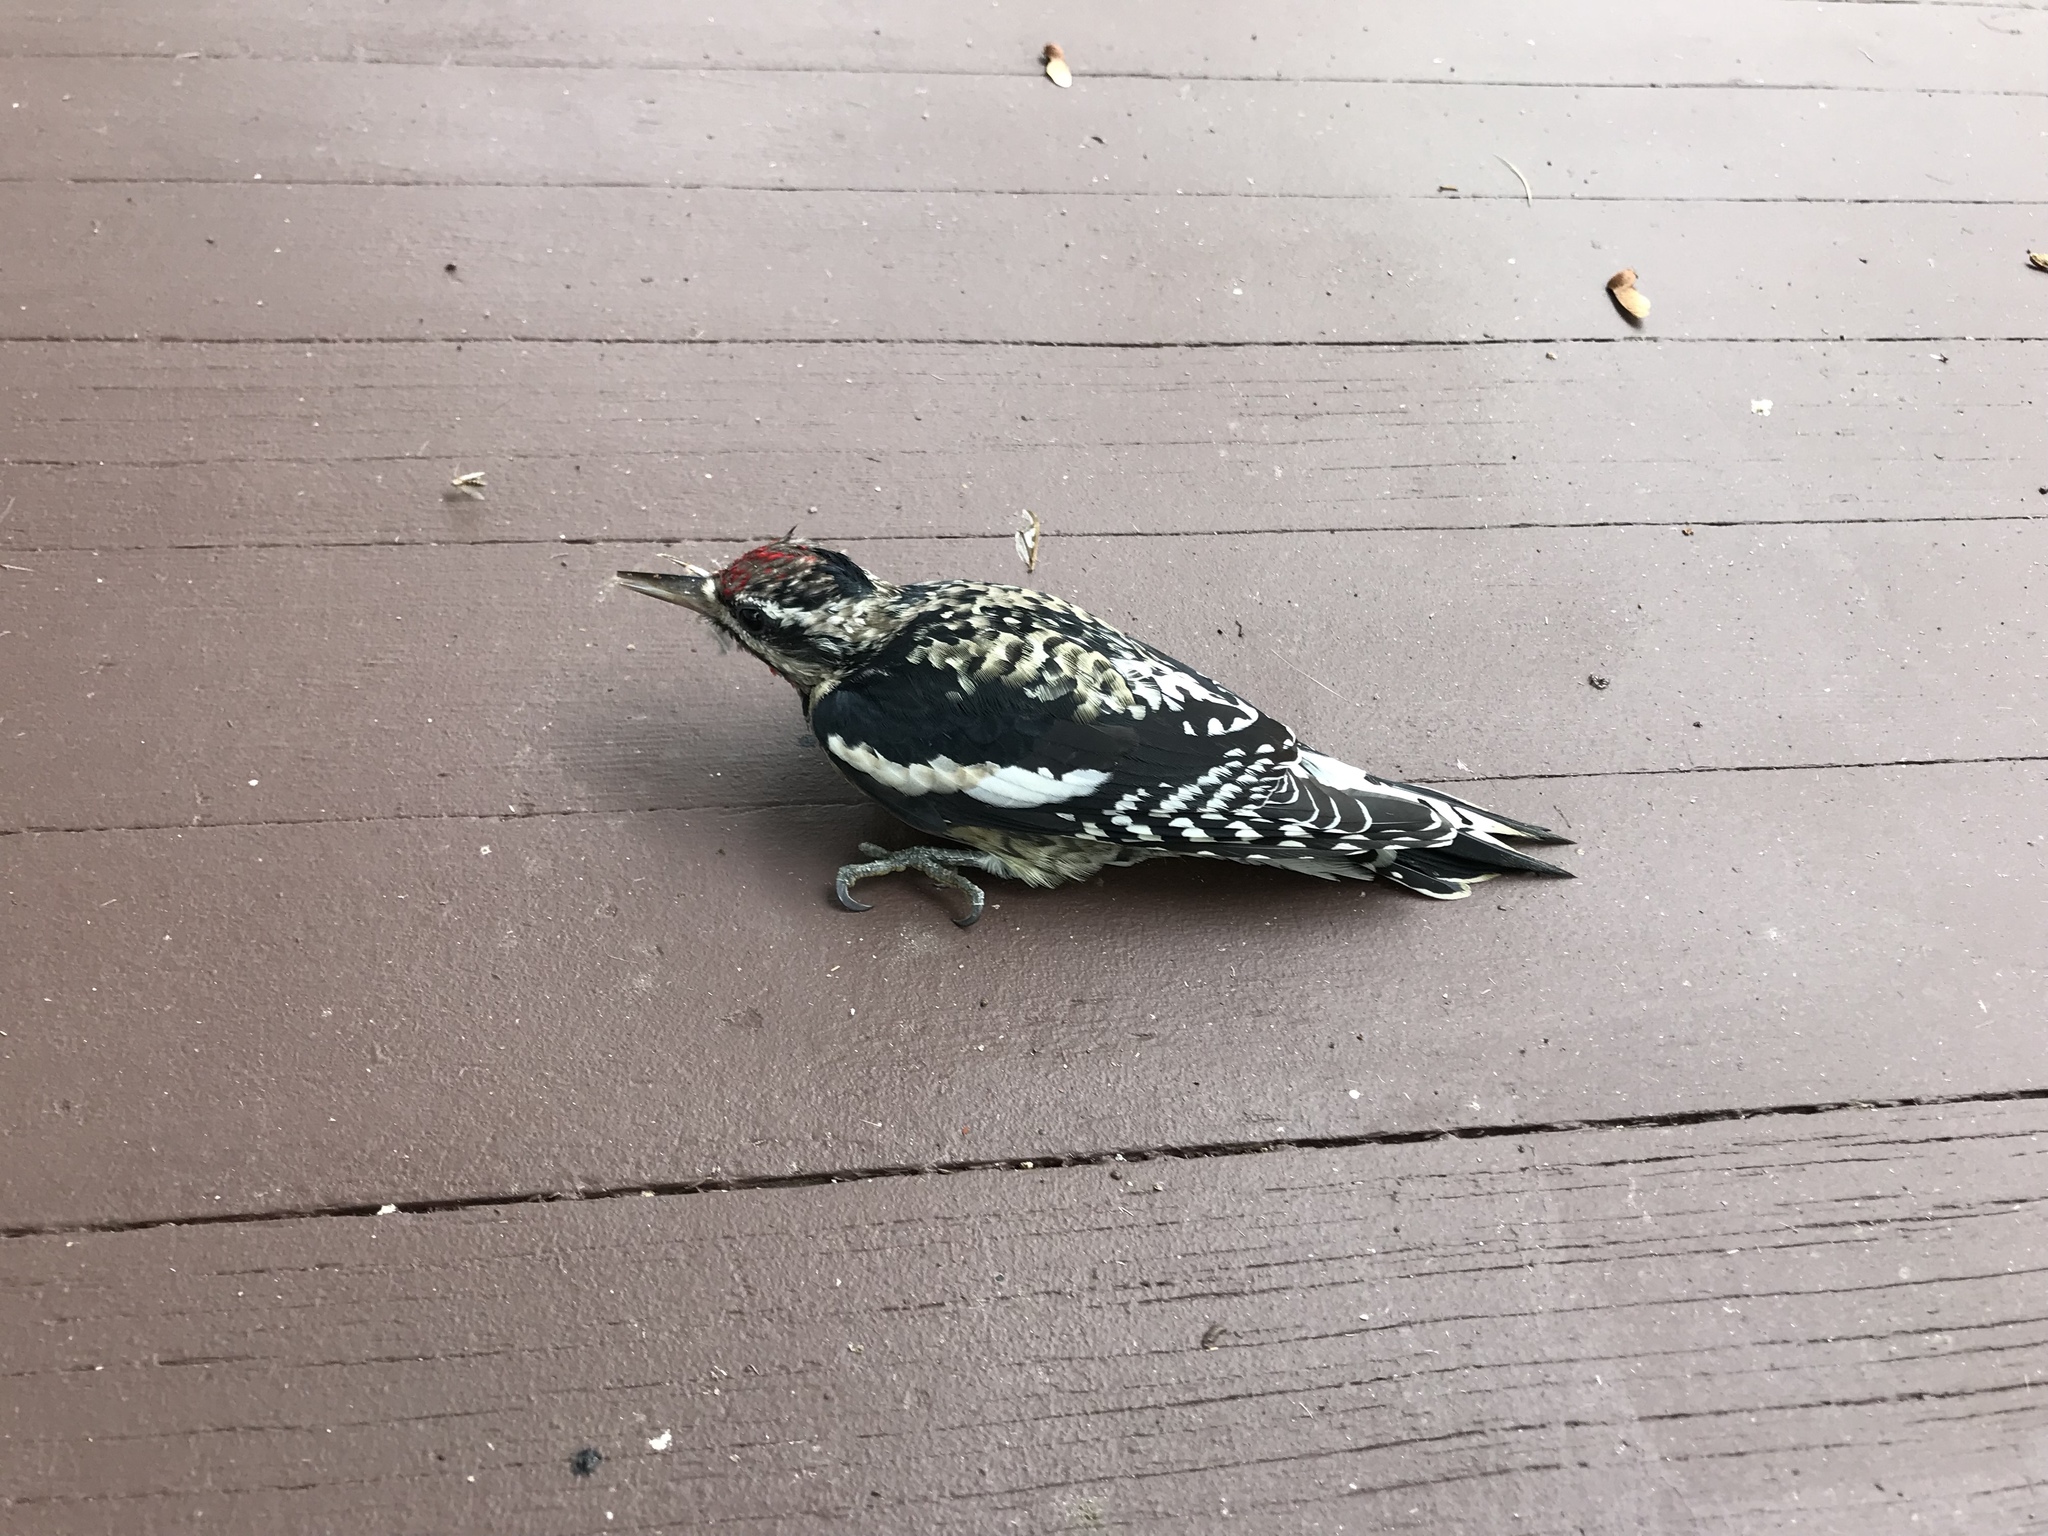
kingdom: Animalia
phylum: Chordata
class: Aves
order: Piciformes
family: Picidae
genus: Sphyrapicus
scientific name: Sphyrapicus varius
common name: Yellow-bellied sapsucker
